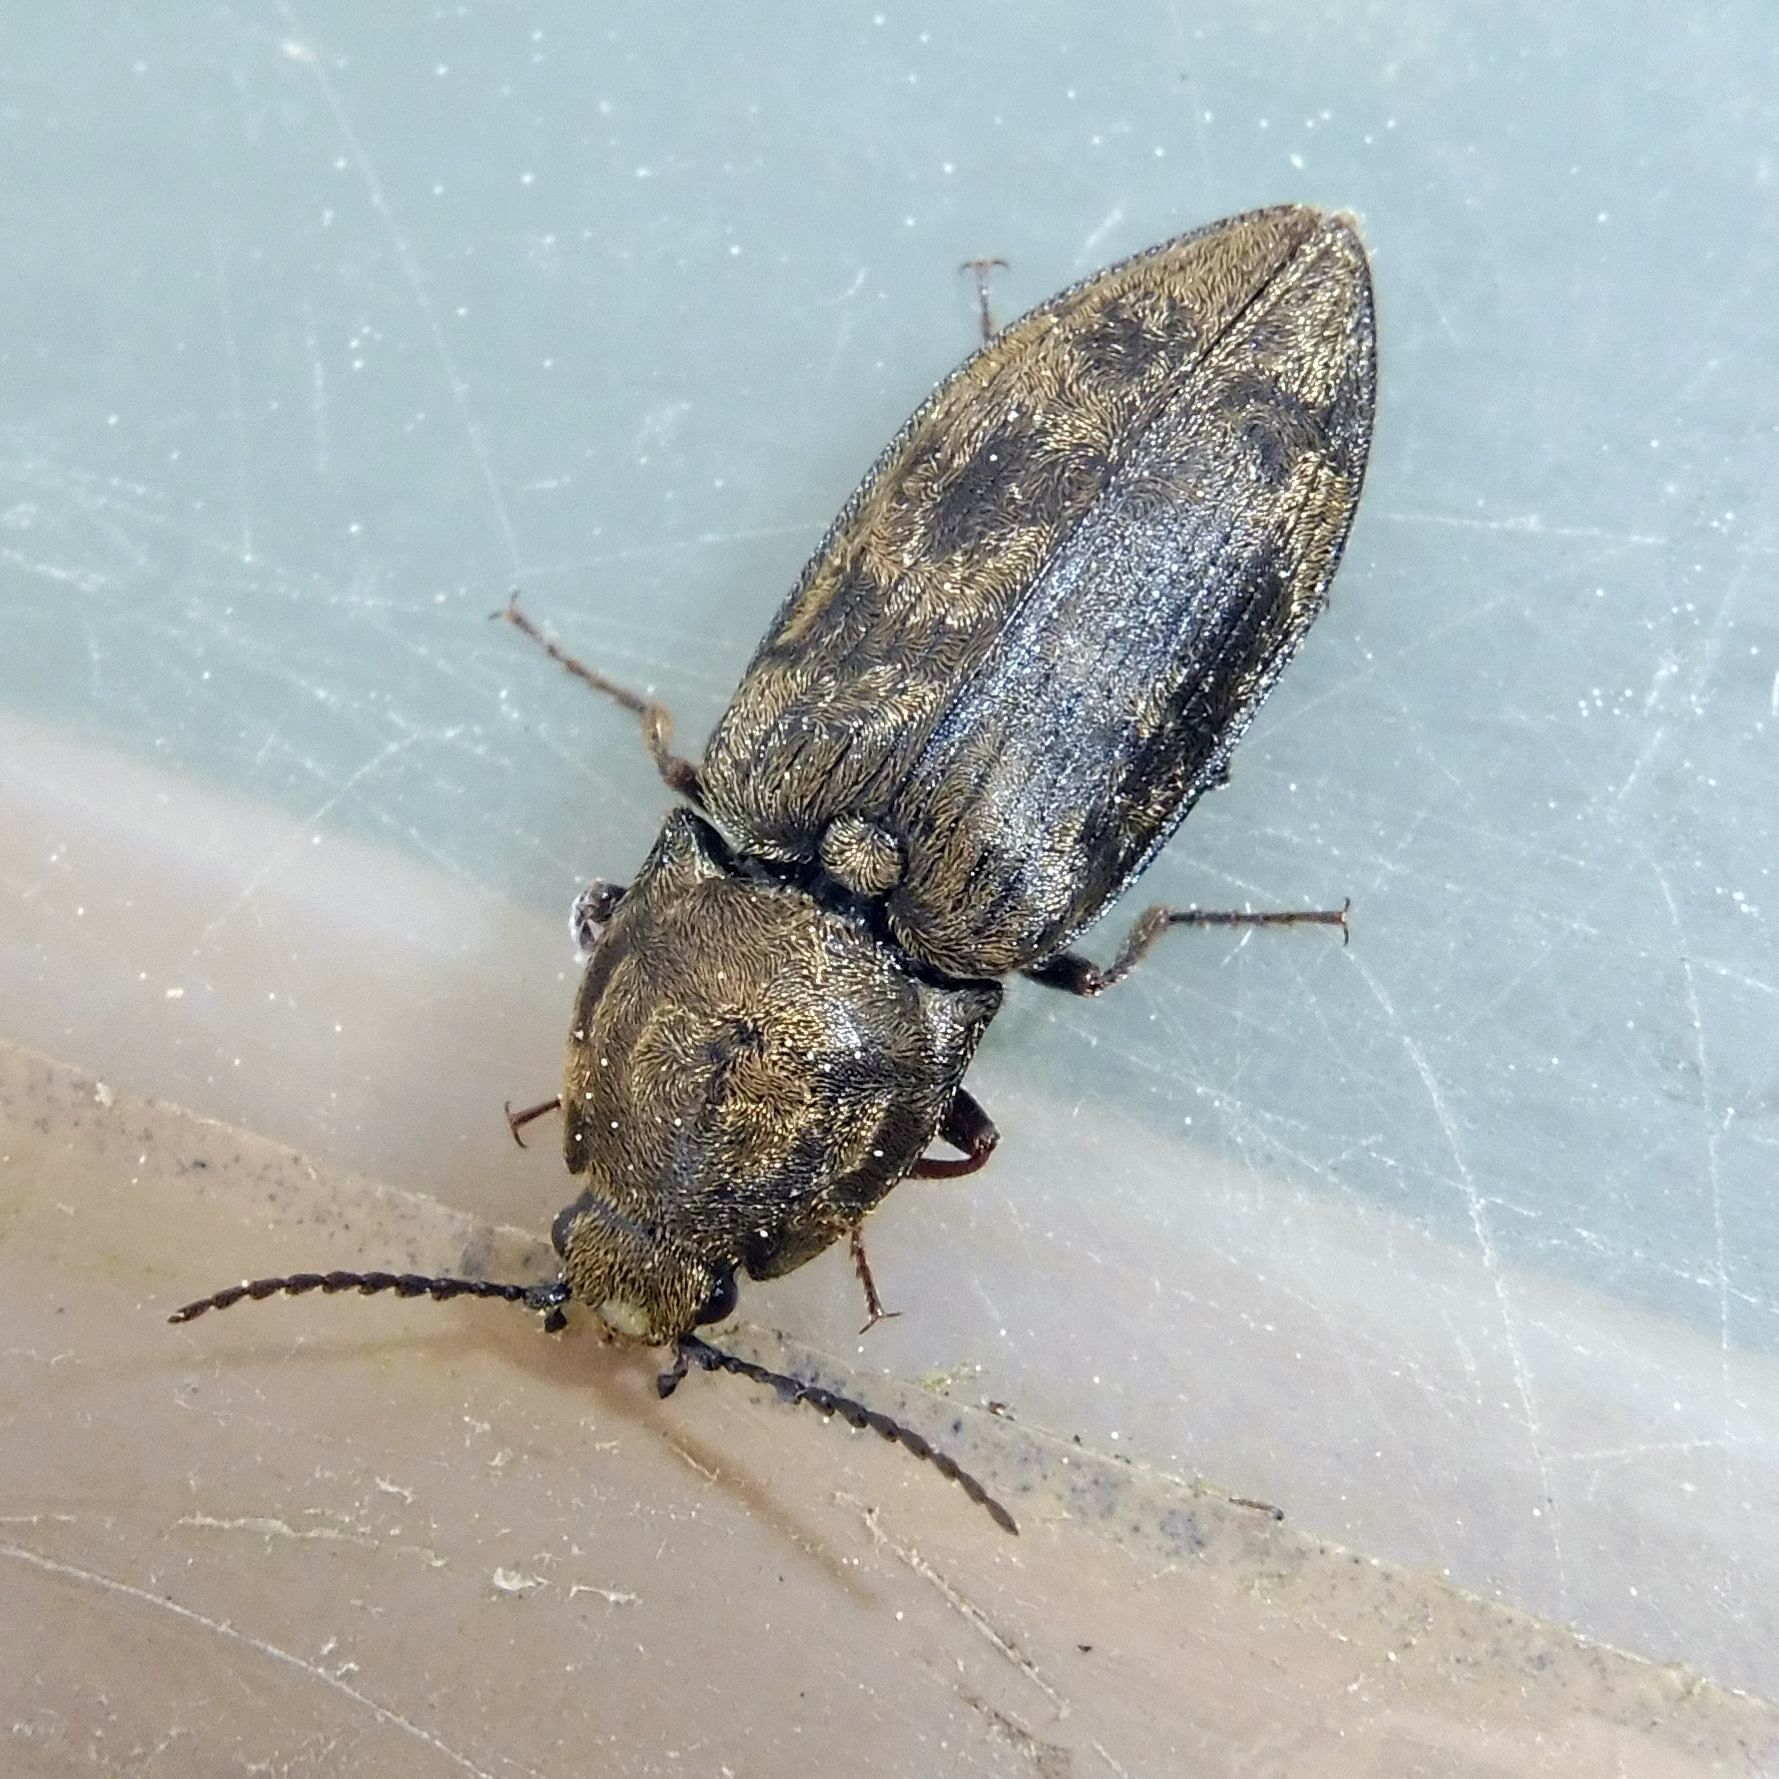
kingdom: Animalia
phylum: Arthropoda
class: Insecta
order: Coleoptera
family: Elateridae
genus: Prosternon
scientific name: Prosternon tessellatum
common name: Chequered click beetle
